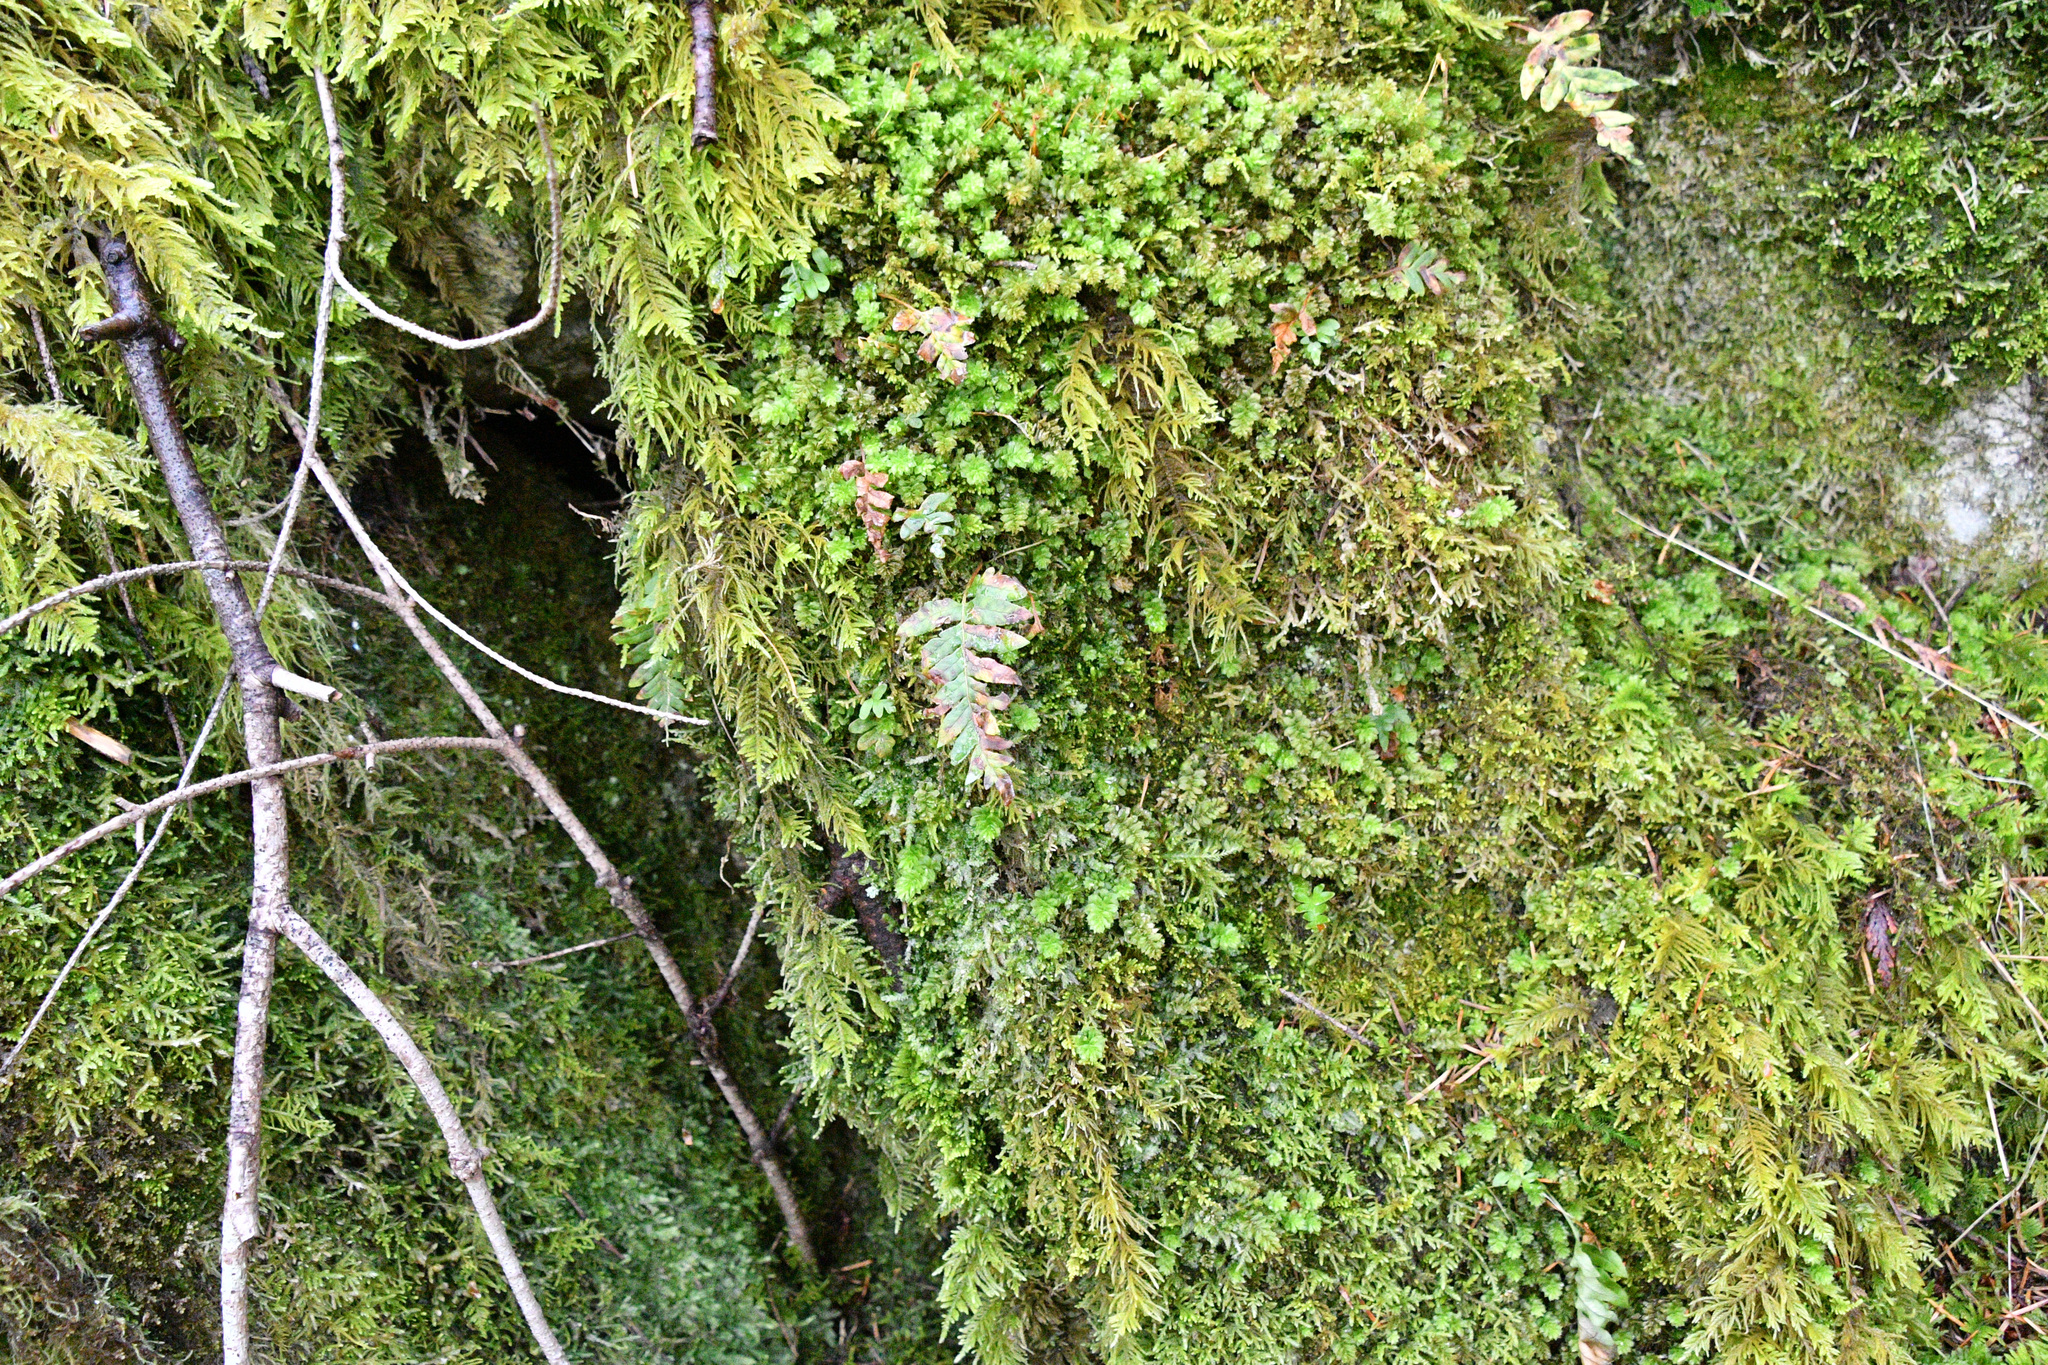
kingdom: Plantae
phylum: Tracheophyta
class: Polypodiopsida
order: Polypodiales
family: Polypodiaceae
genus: Polypodium
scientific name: Polypodium glycyrrhiza
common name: Licorice fern
